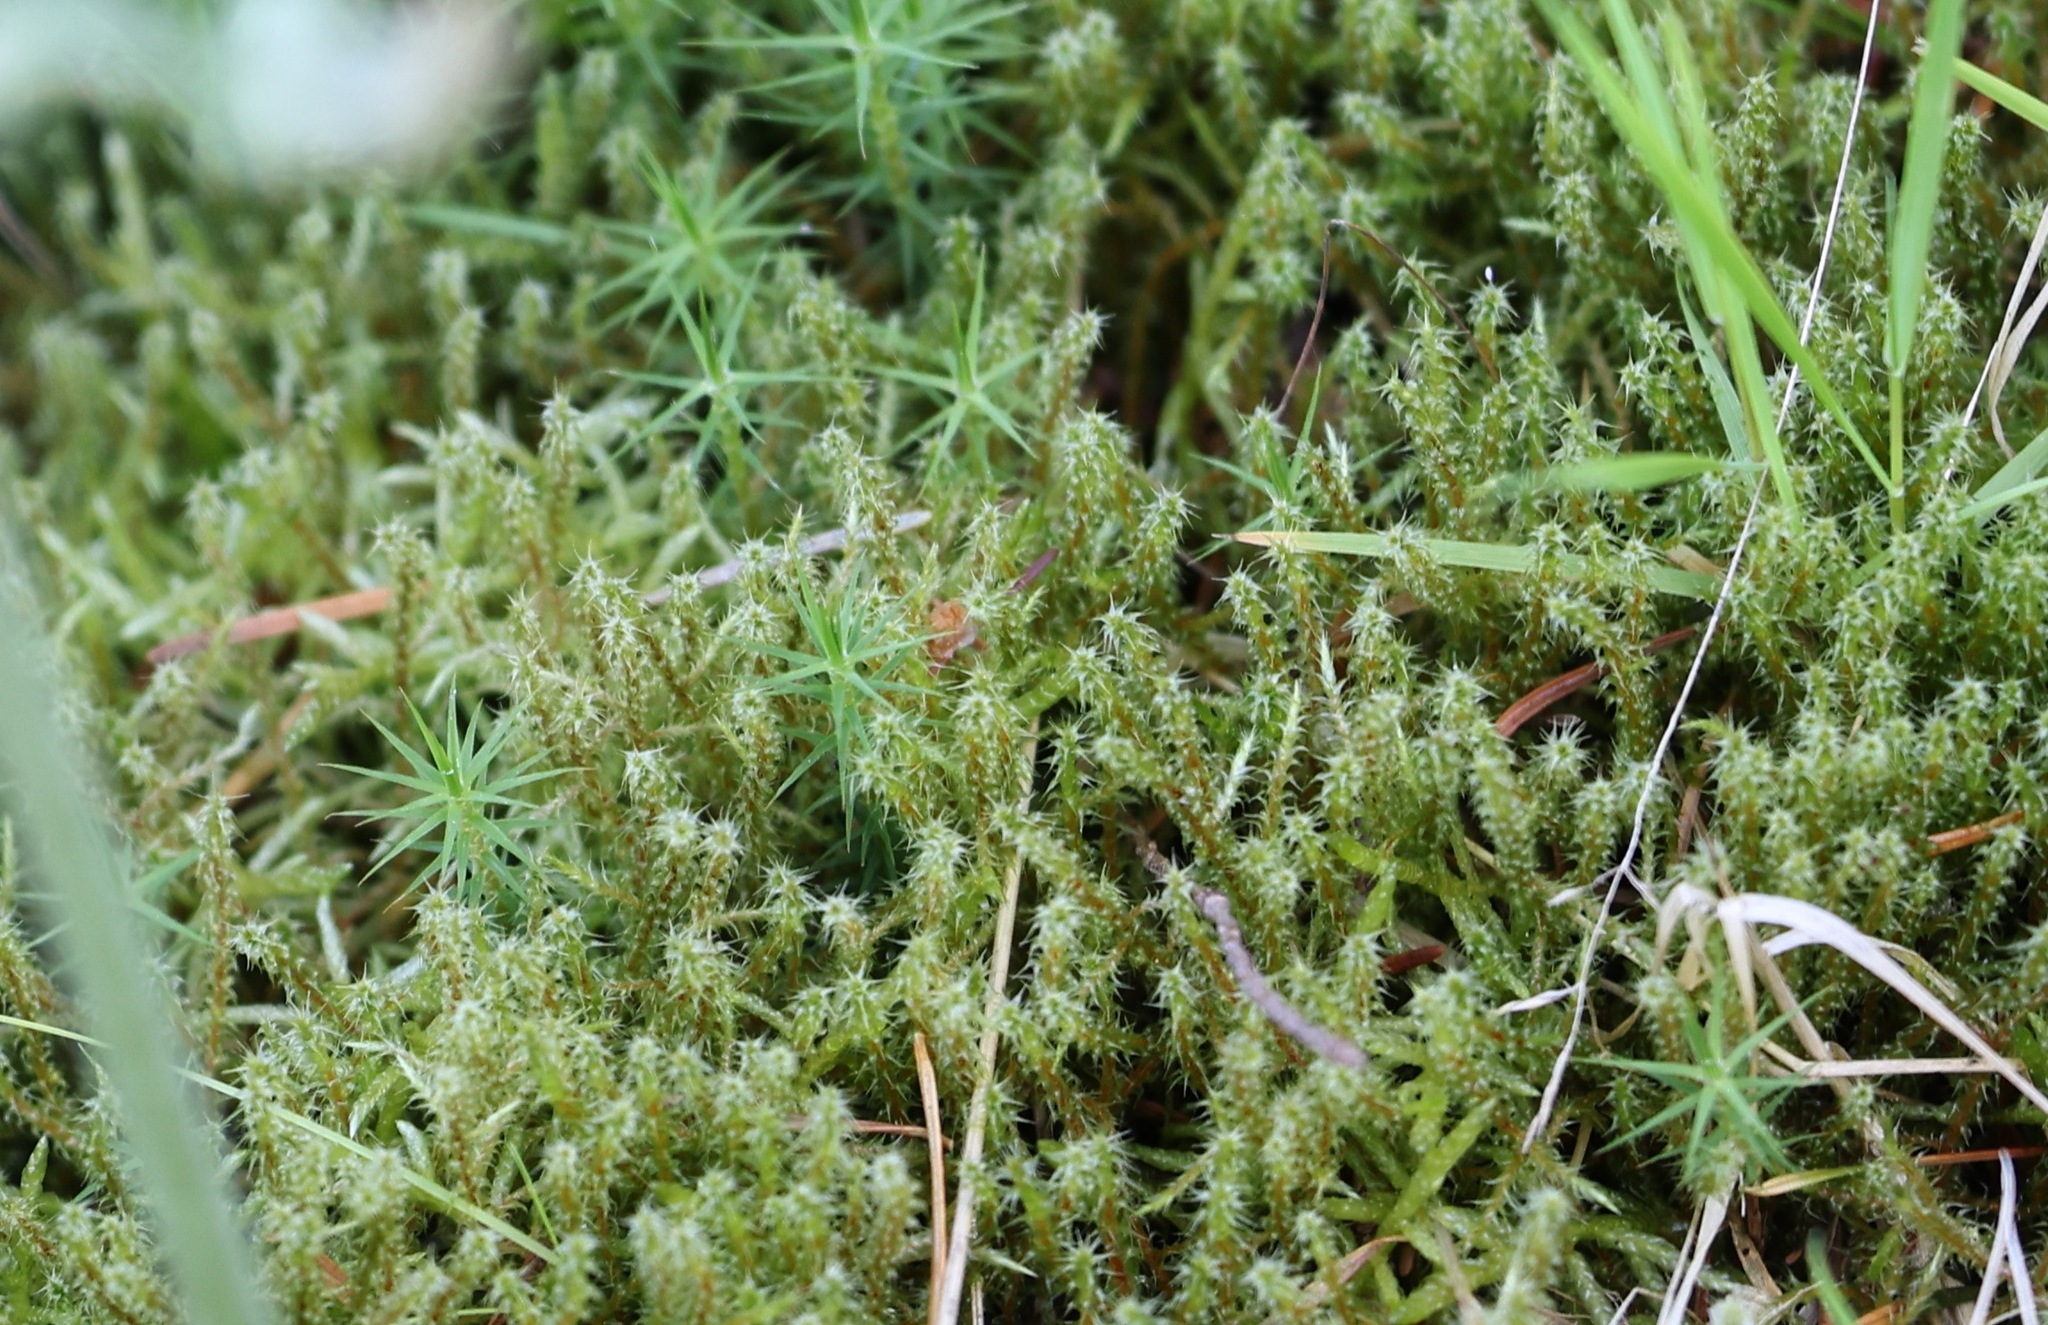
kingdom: Plantae
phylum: Bryophyta
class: Bryopsida
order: Hypnales
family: Hylocomiaceae
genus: Rhytidiadelphus
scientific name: Rhytidiadelphus squarrosus
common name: Springy turf-moss
